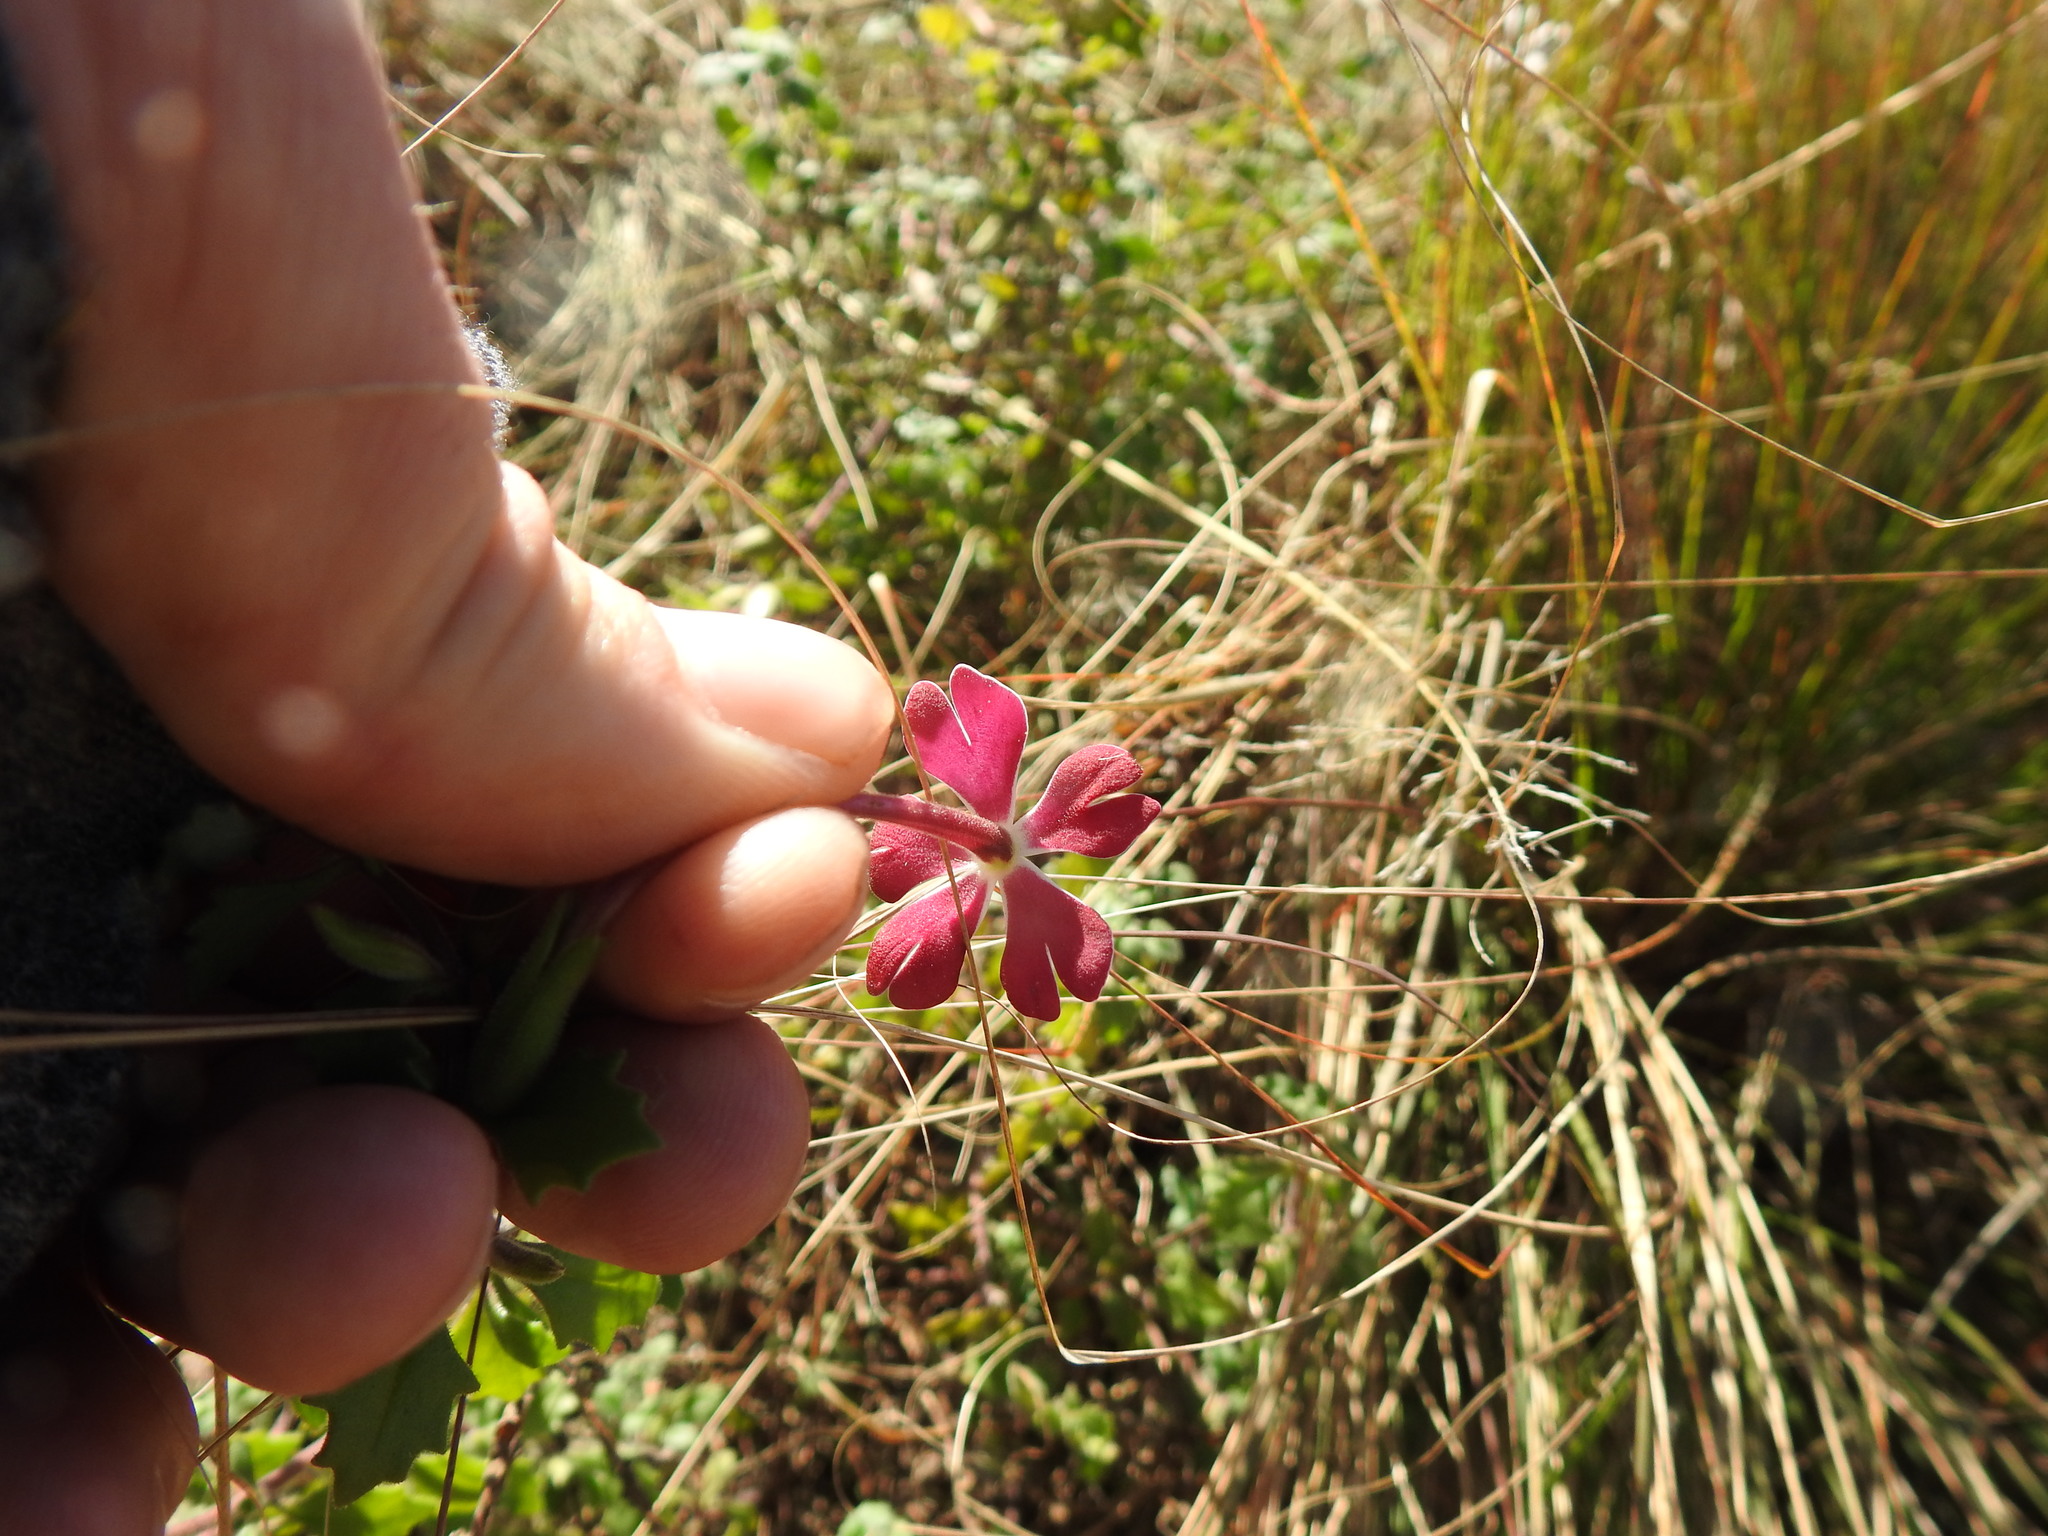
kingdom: Plantae
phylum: Tracheophyta
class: Magnoliopsida
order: Lamiales
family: Scrophulariaceae
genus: Zaluzianskya
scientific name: Zaluzianskya katharinae
